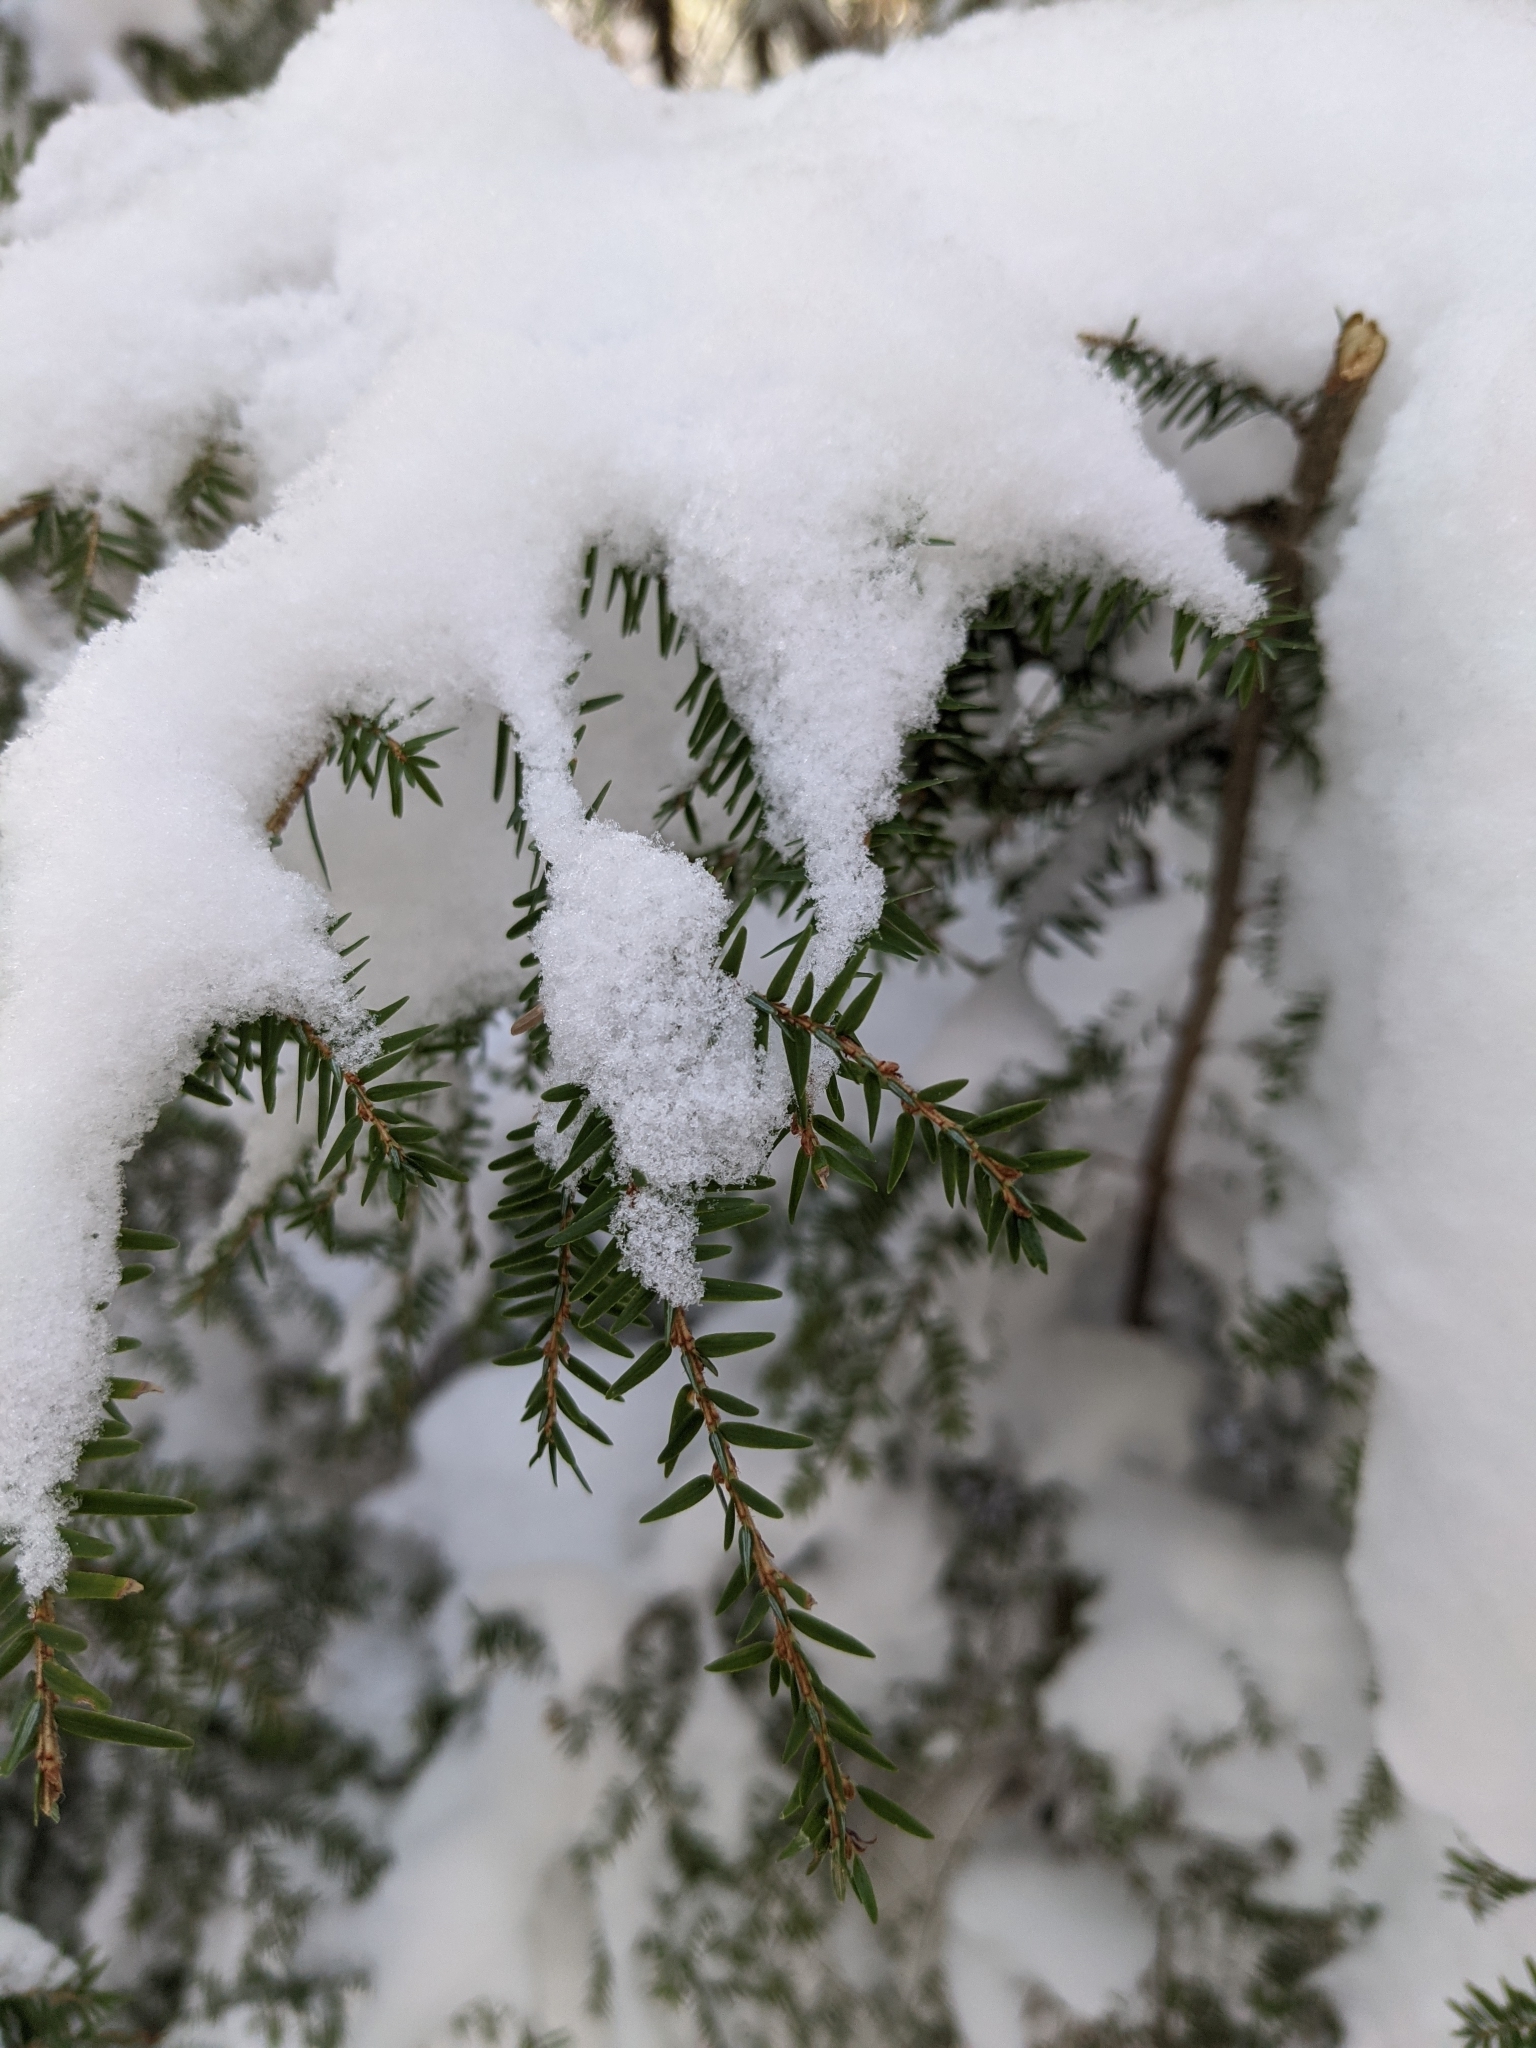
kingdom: Plantae
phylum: Tracheophyta
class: Pinopsida
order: Pinales
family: Pinaceae
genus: Tsuga
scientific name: Tsuga canadensis
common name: Eastern hemlock
